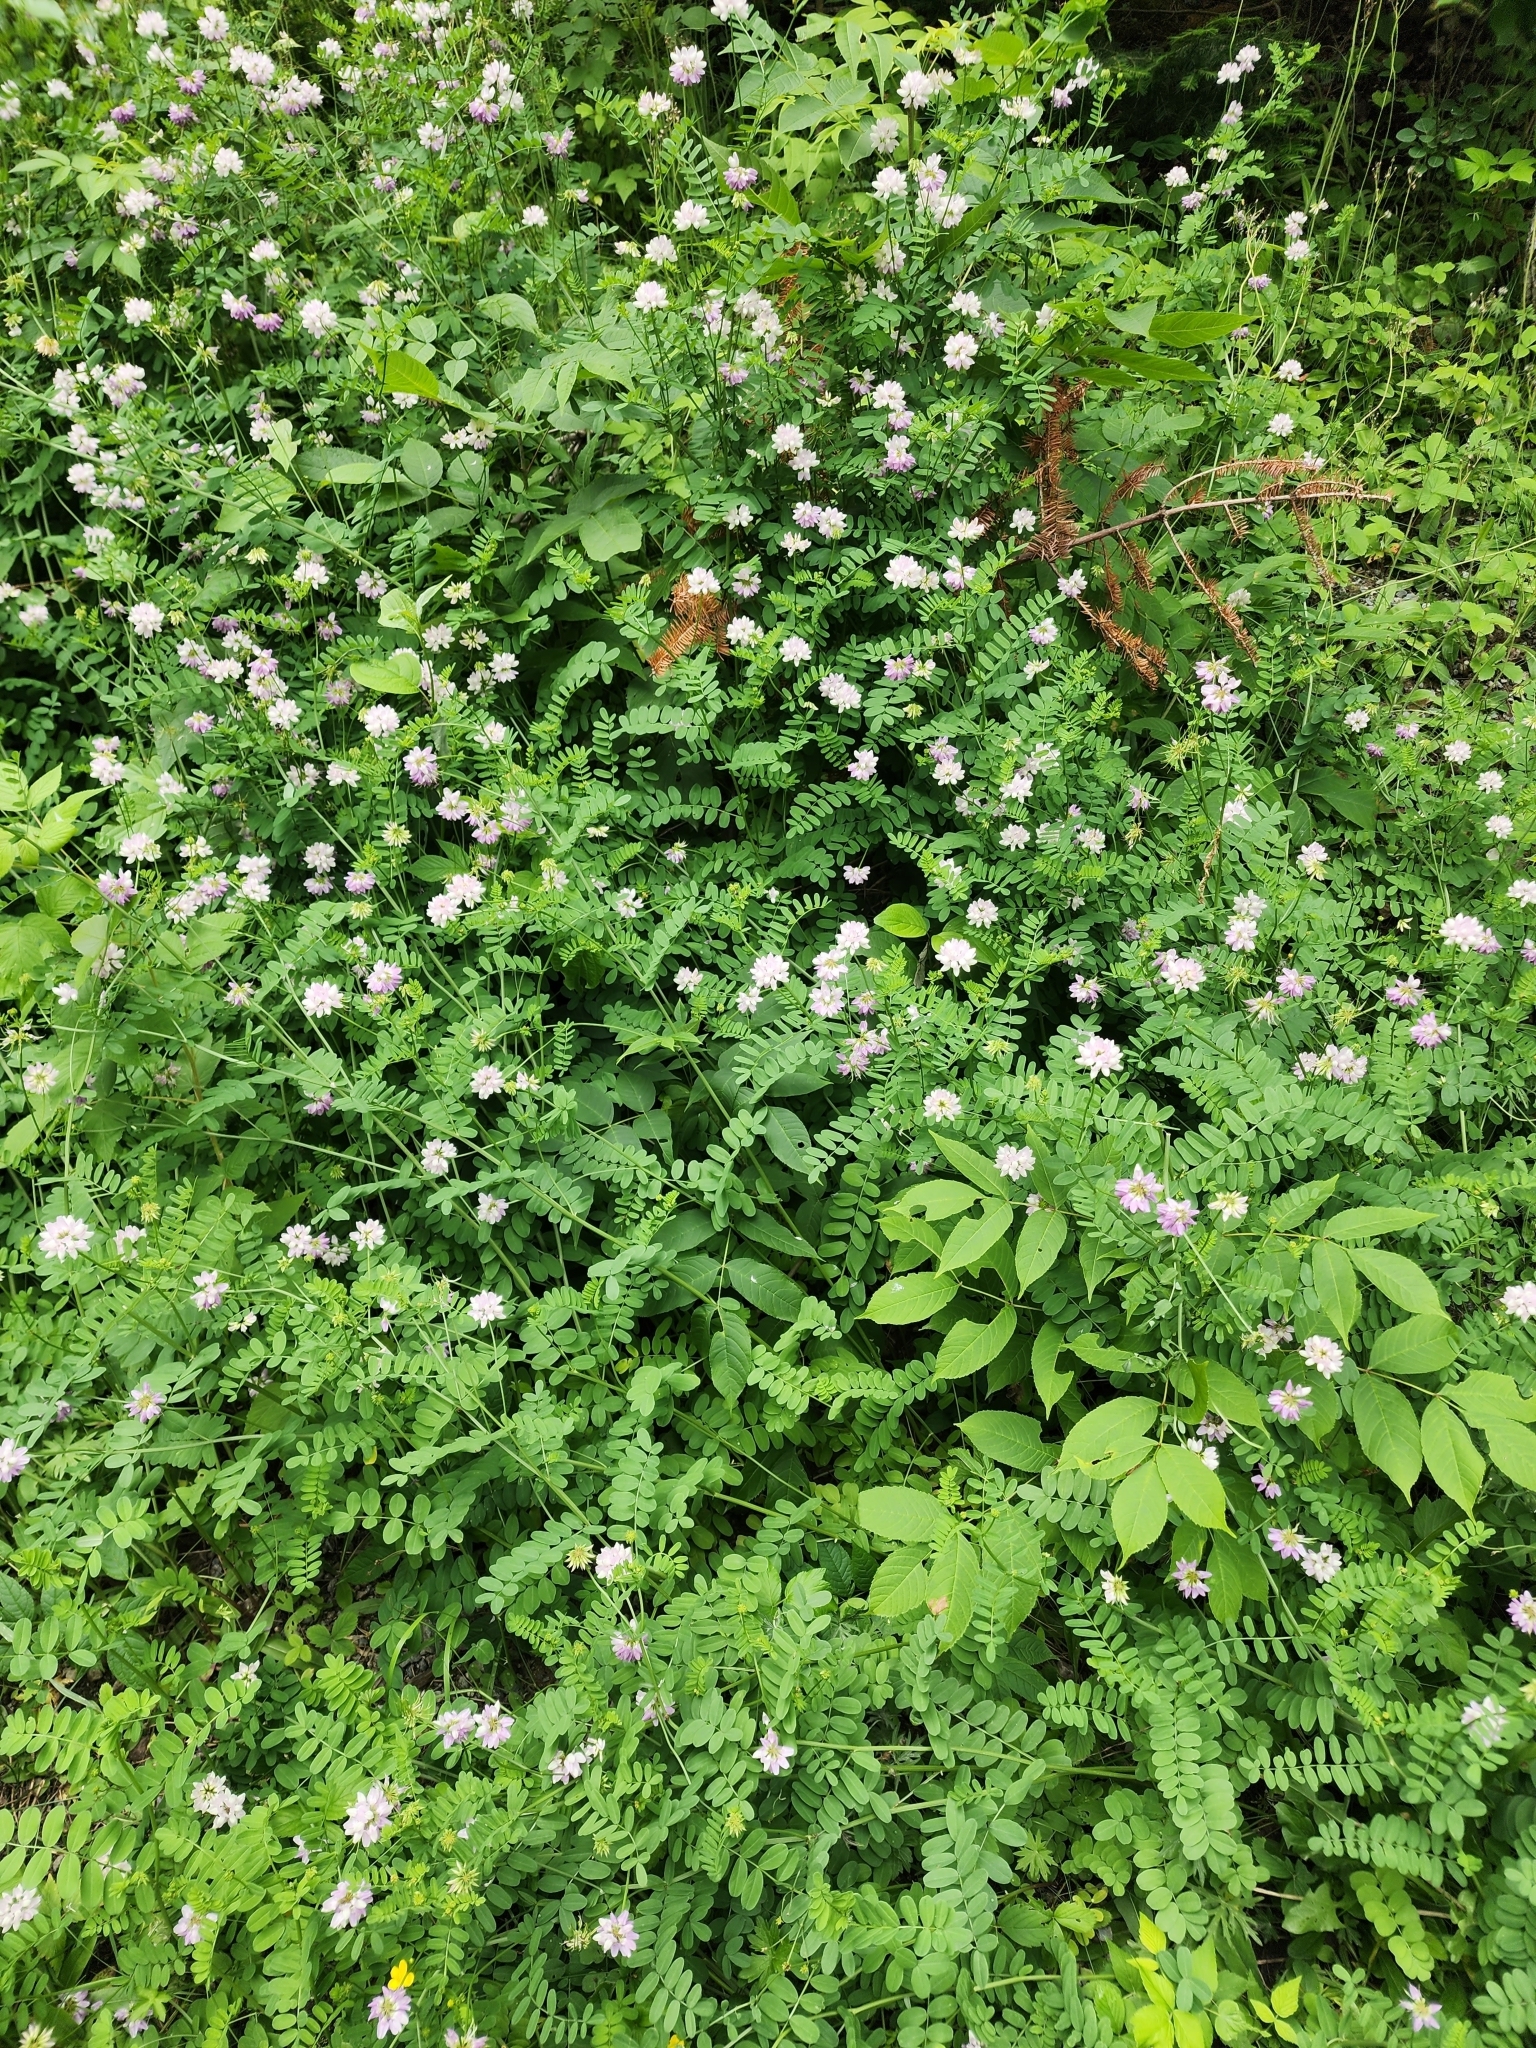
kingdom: Plantae
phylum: Tracheophyta
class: Magnoliopsida
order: Fabales
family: Fabaceae
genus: Coronilla
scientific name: Coronilla varia
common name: Crownvetch
